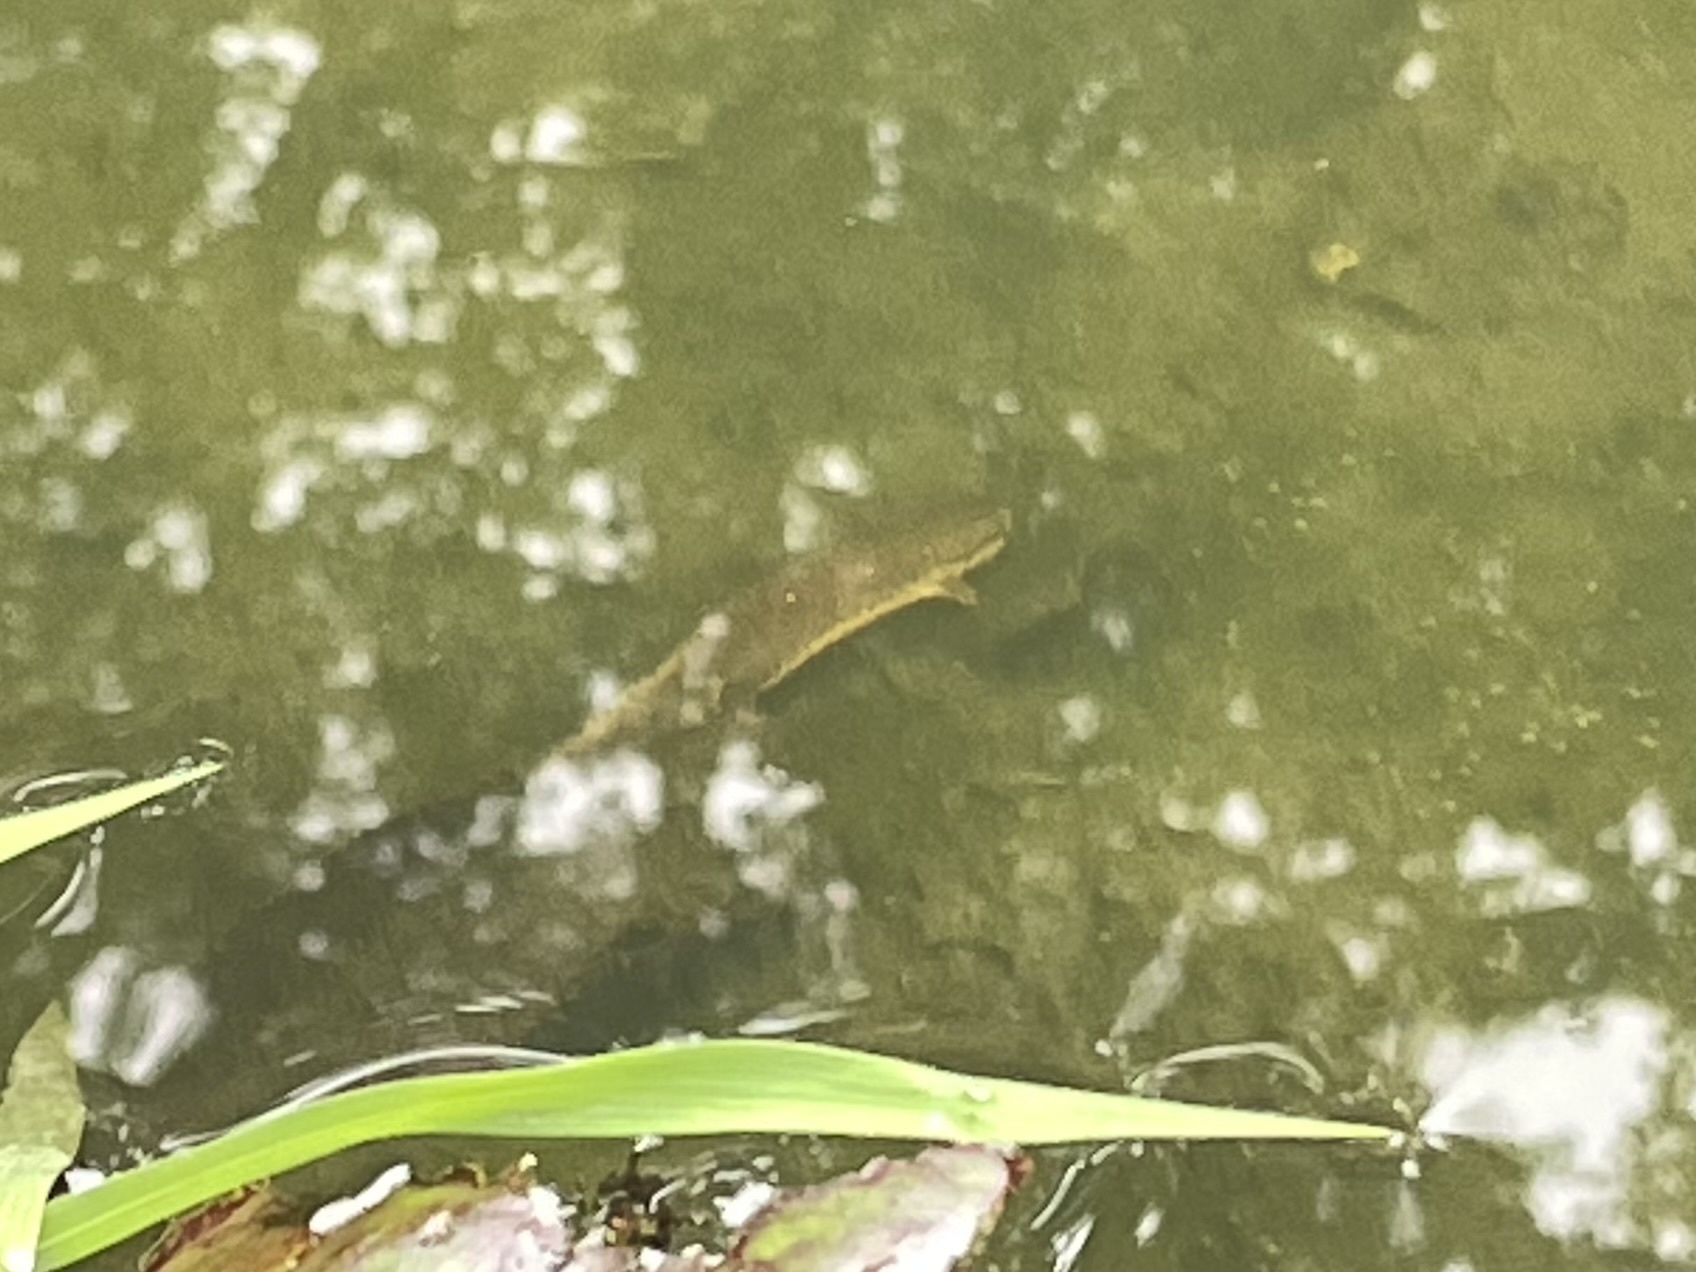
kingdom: Animalia
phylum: Chordata
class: Amphibia
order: Caudata
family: Salamandridae
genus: Notophthalmus
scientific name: Notophthalmus viridescens
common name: Eastern newt
